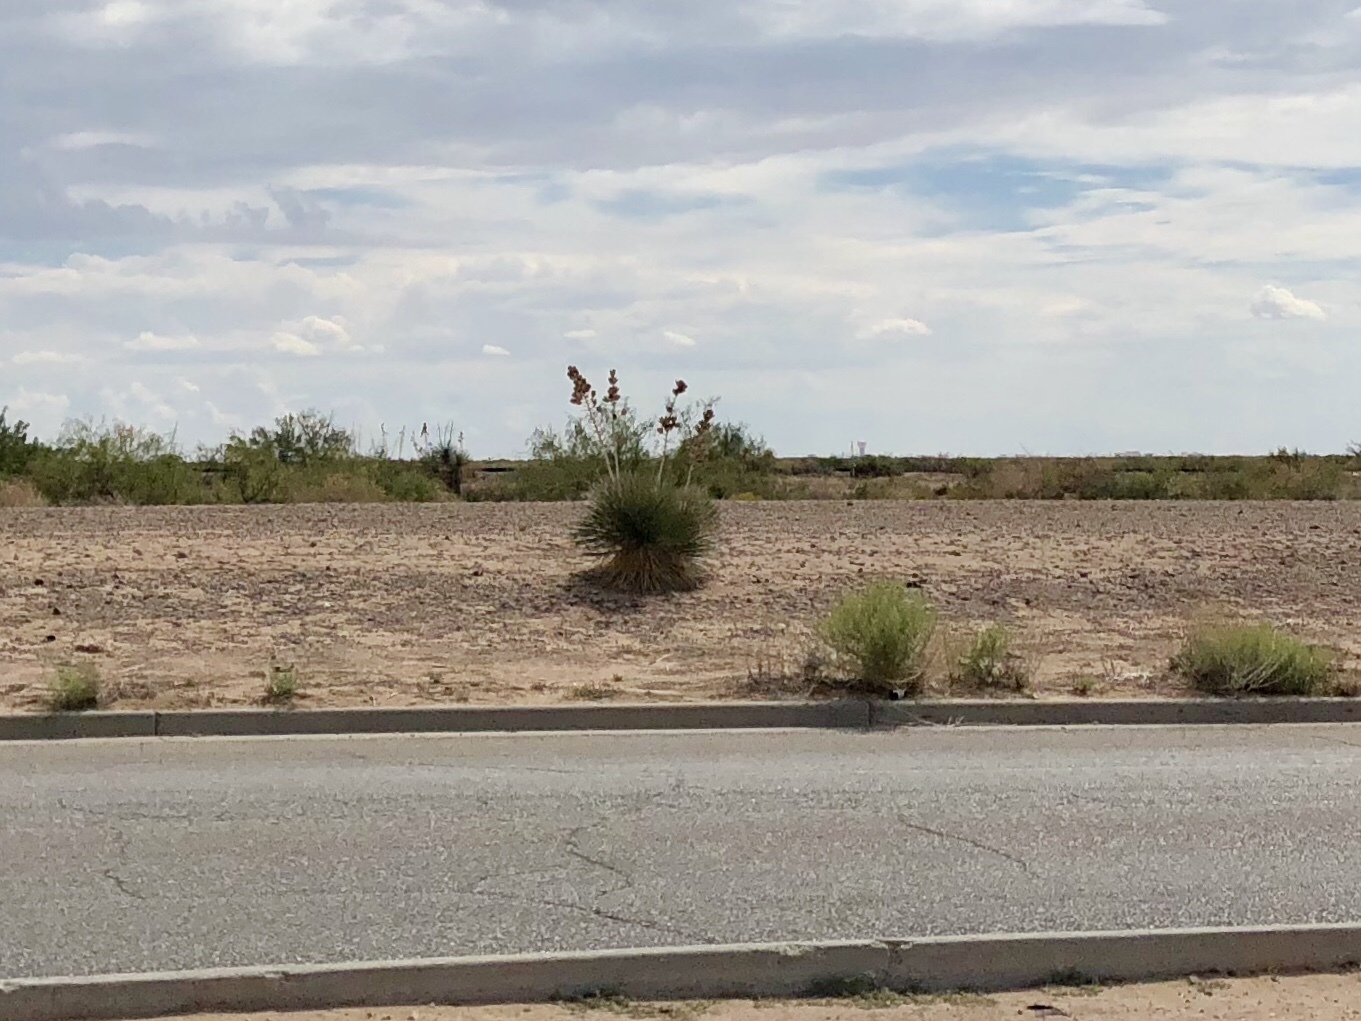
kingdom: Plantae
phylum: Tracheophyta
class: Liliopsida
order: Asparagales
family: Asparagaceae
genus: Yucca
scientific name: Yucca elata
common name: Palmella
